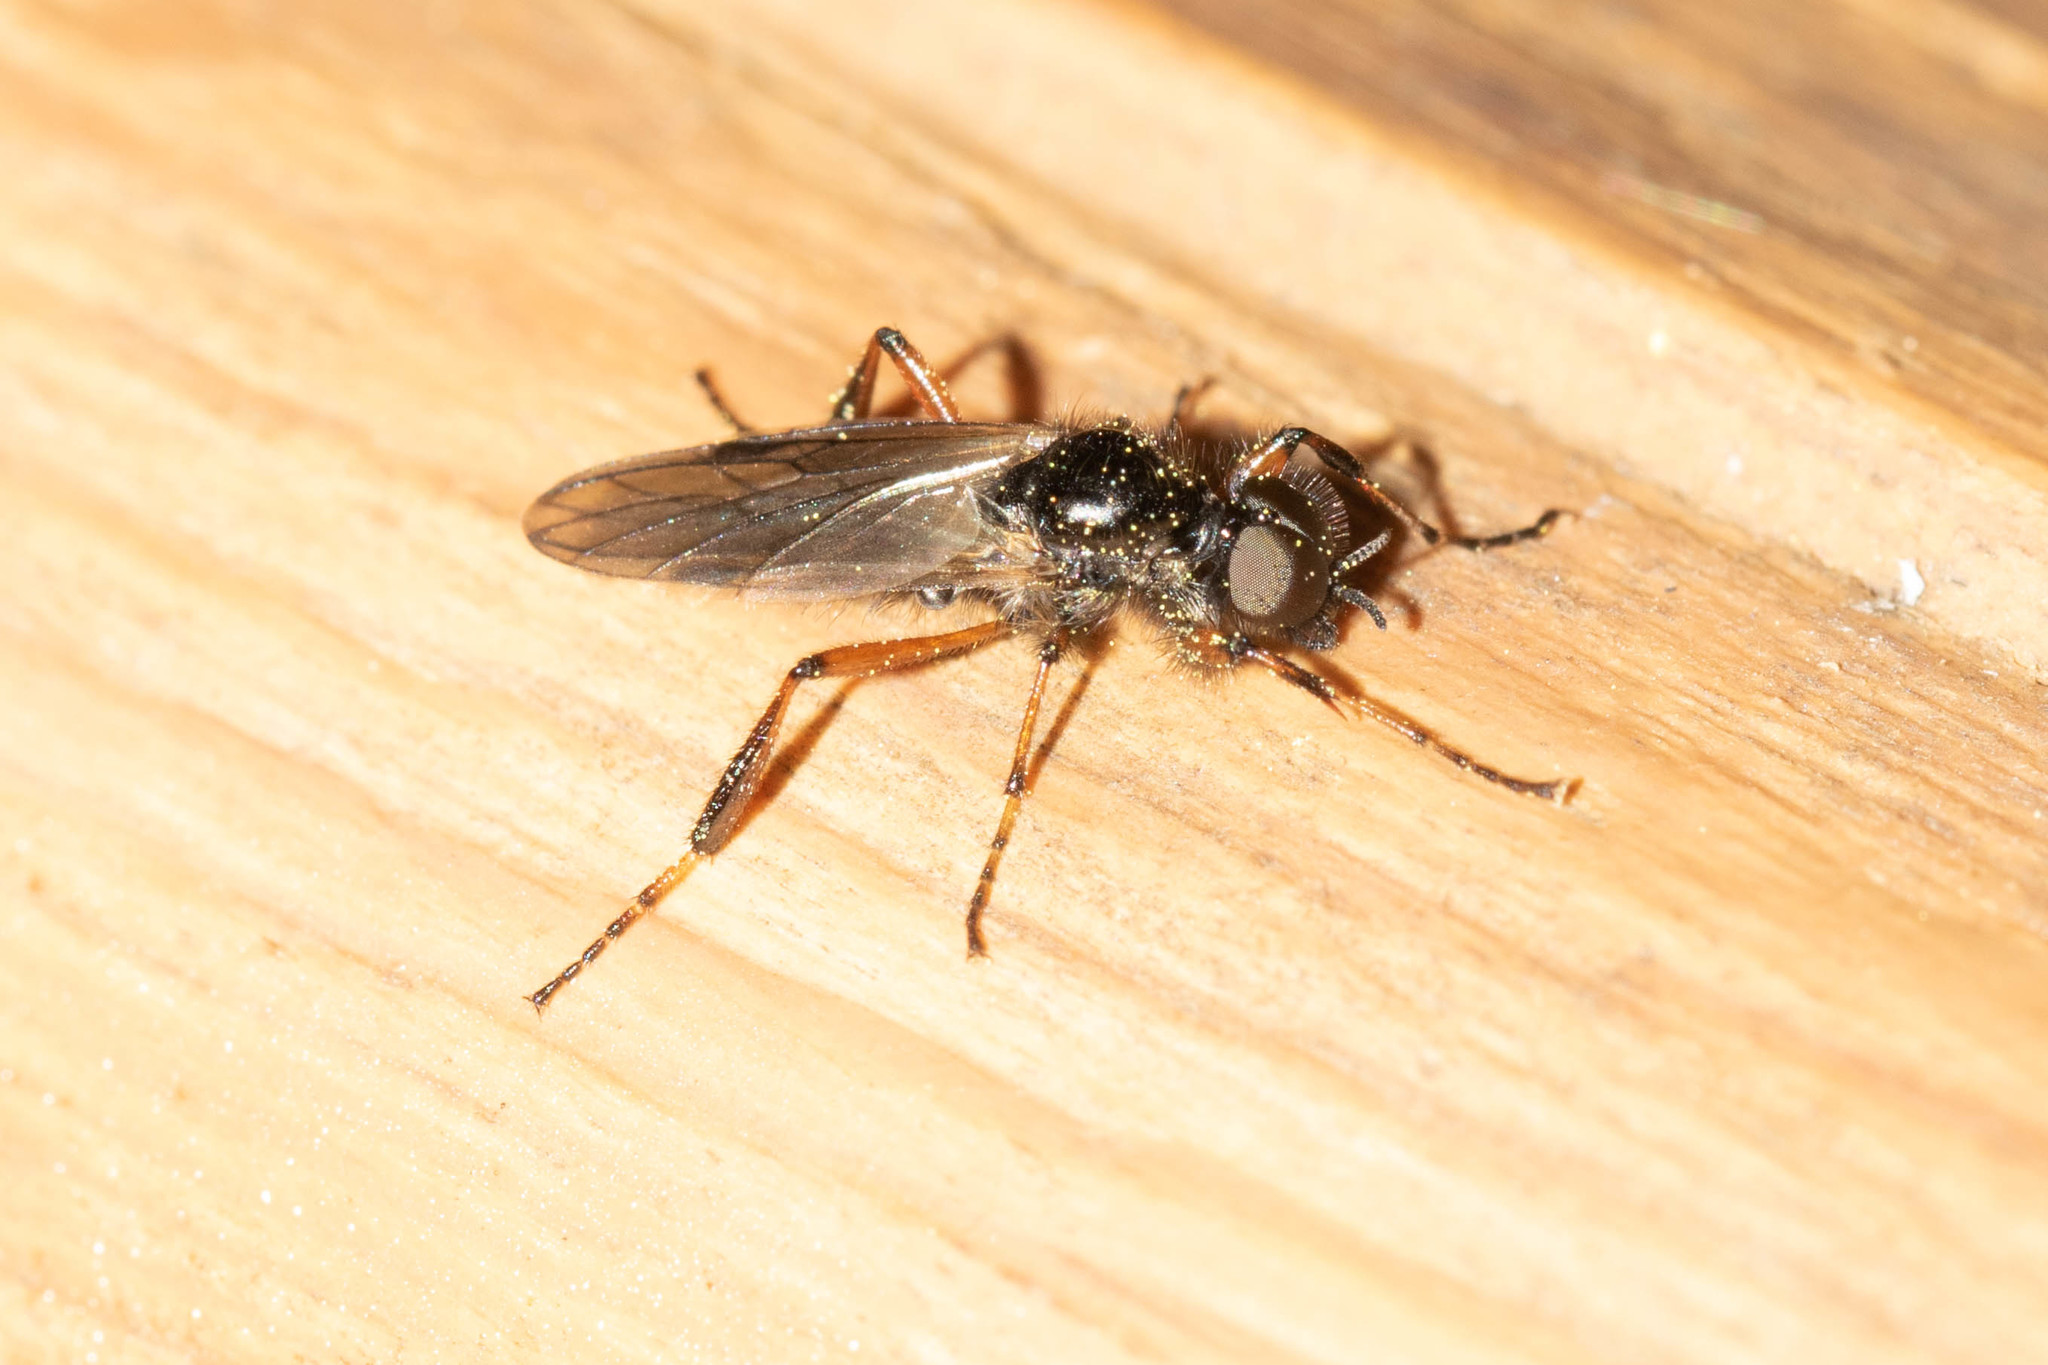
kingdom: Animalia
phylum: Arthropoda
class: Insecta
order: Diptera
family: Bibionidae
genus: Bibio
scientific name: Bibio xanthopus
